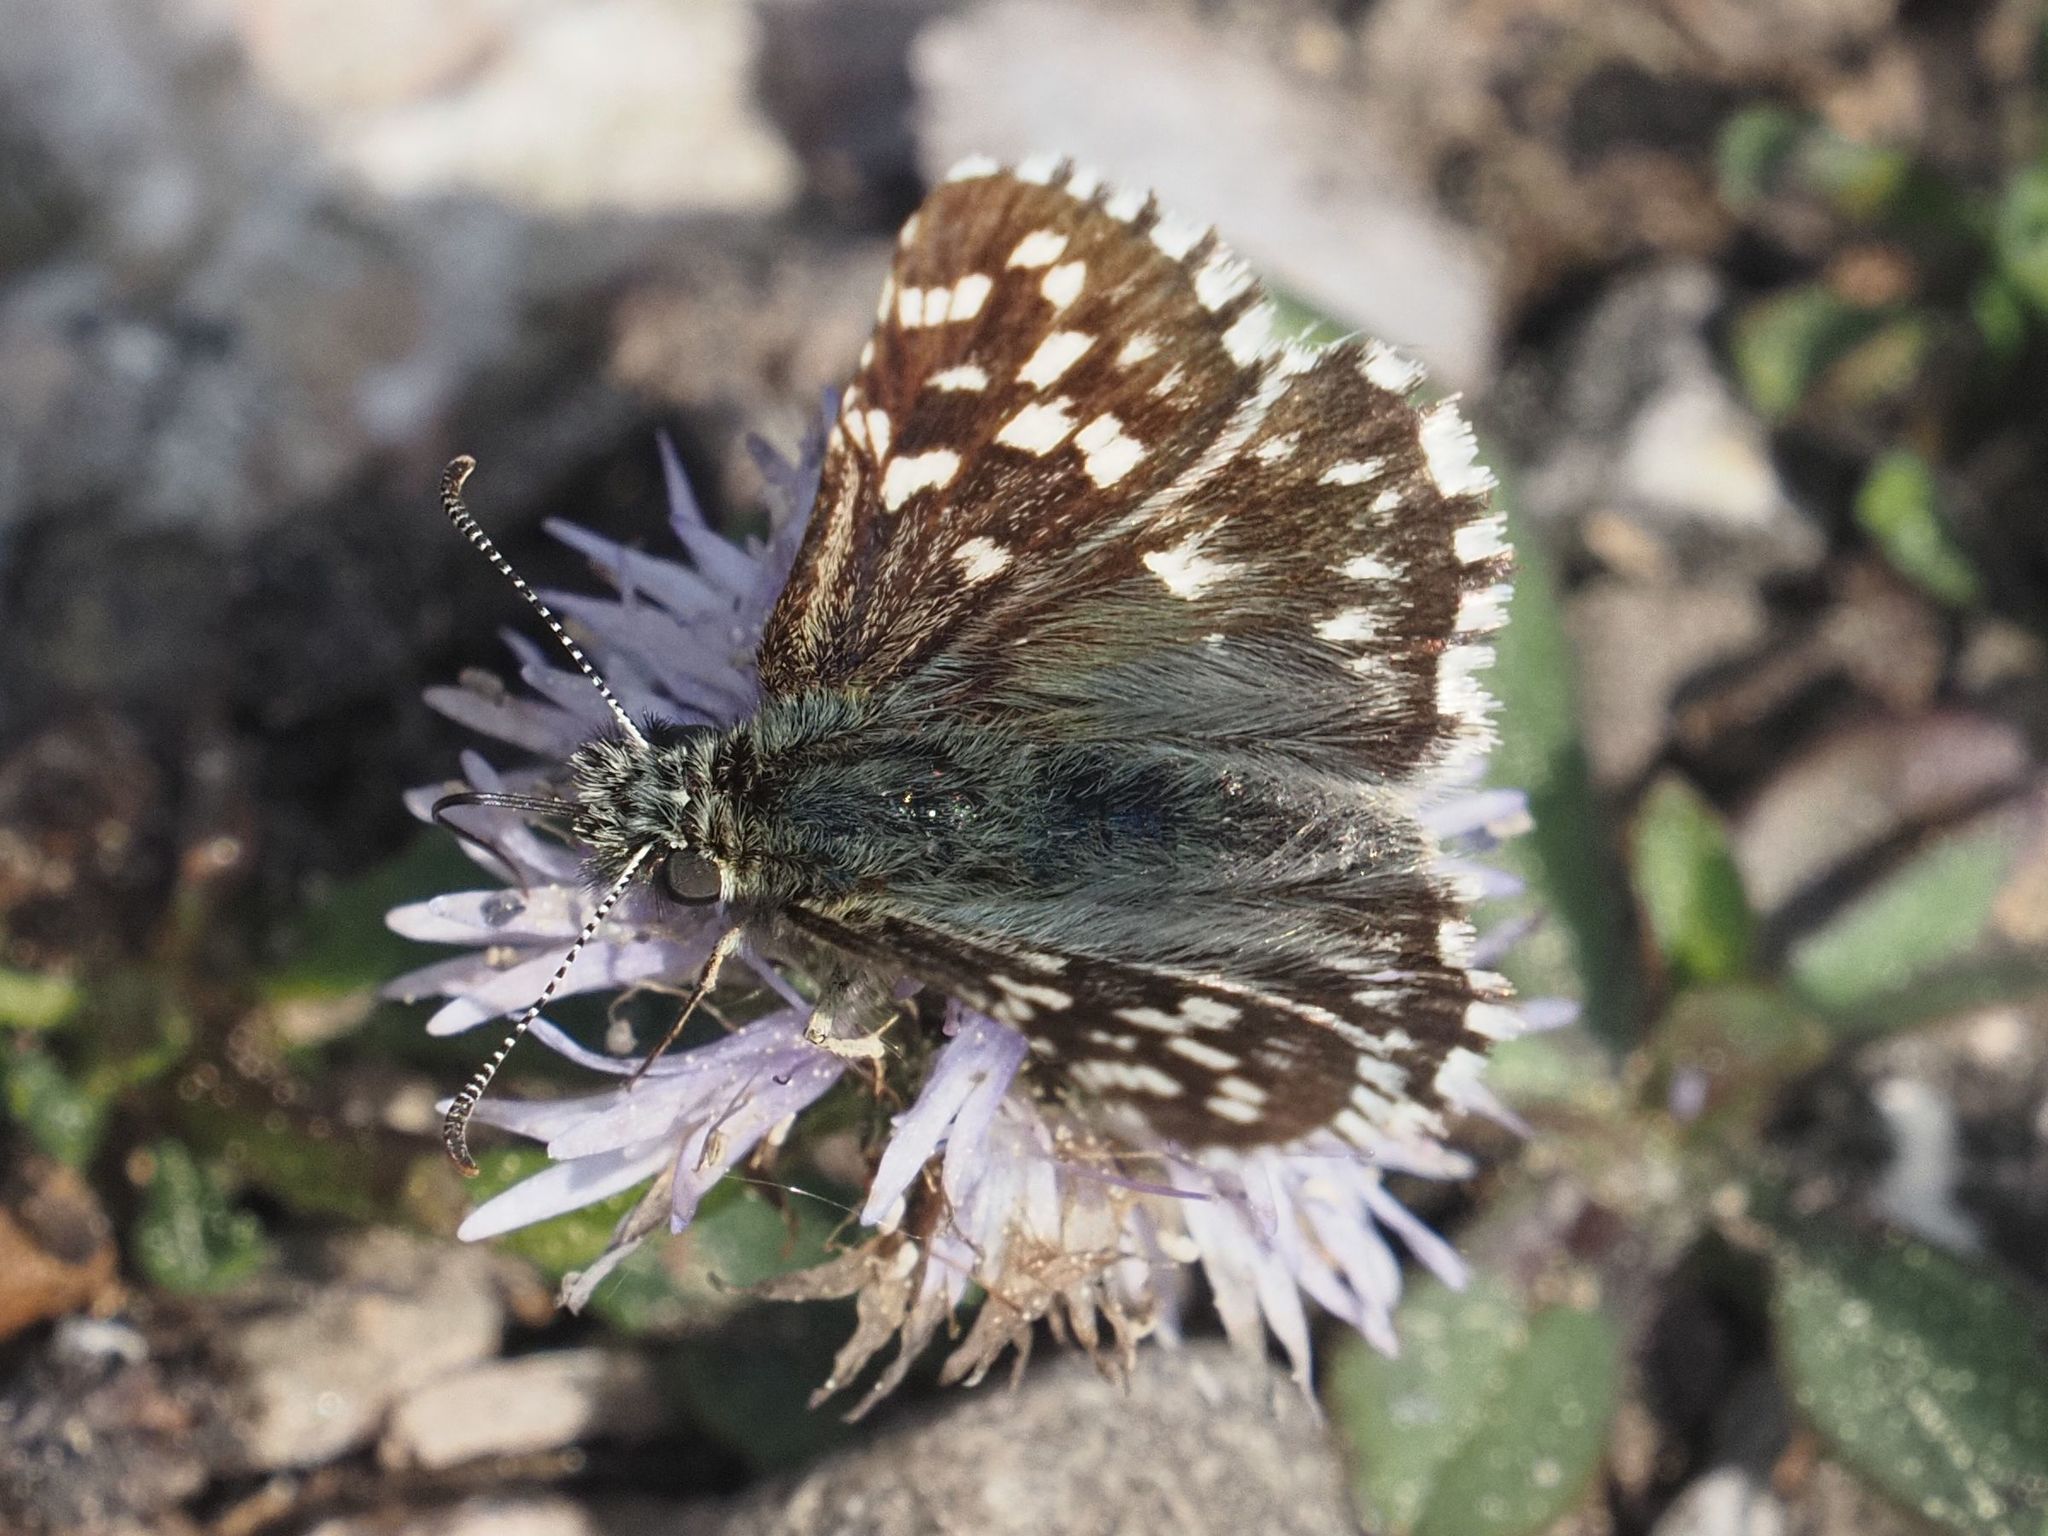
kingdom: Animalia
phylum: Arthropoda
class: Insecta
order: Lepidoptera
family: Hesperiidae
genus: Pyrgus
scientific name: Pyrgus malvae
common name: Grizzled skipper
